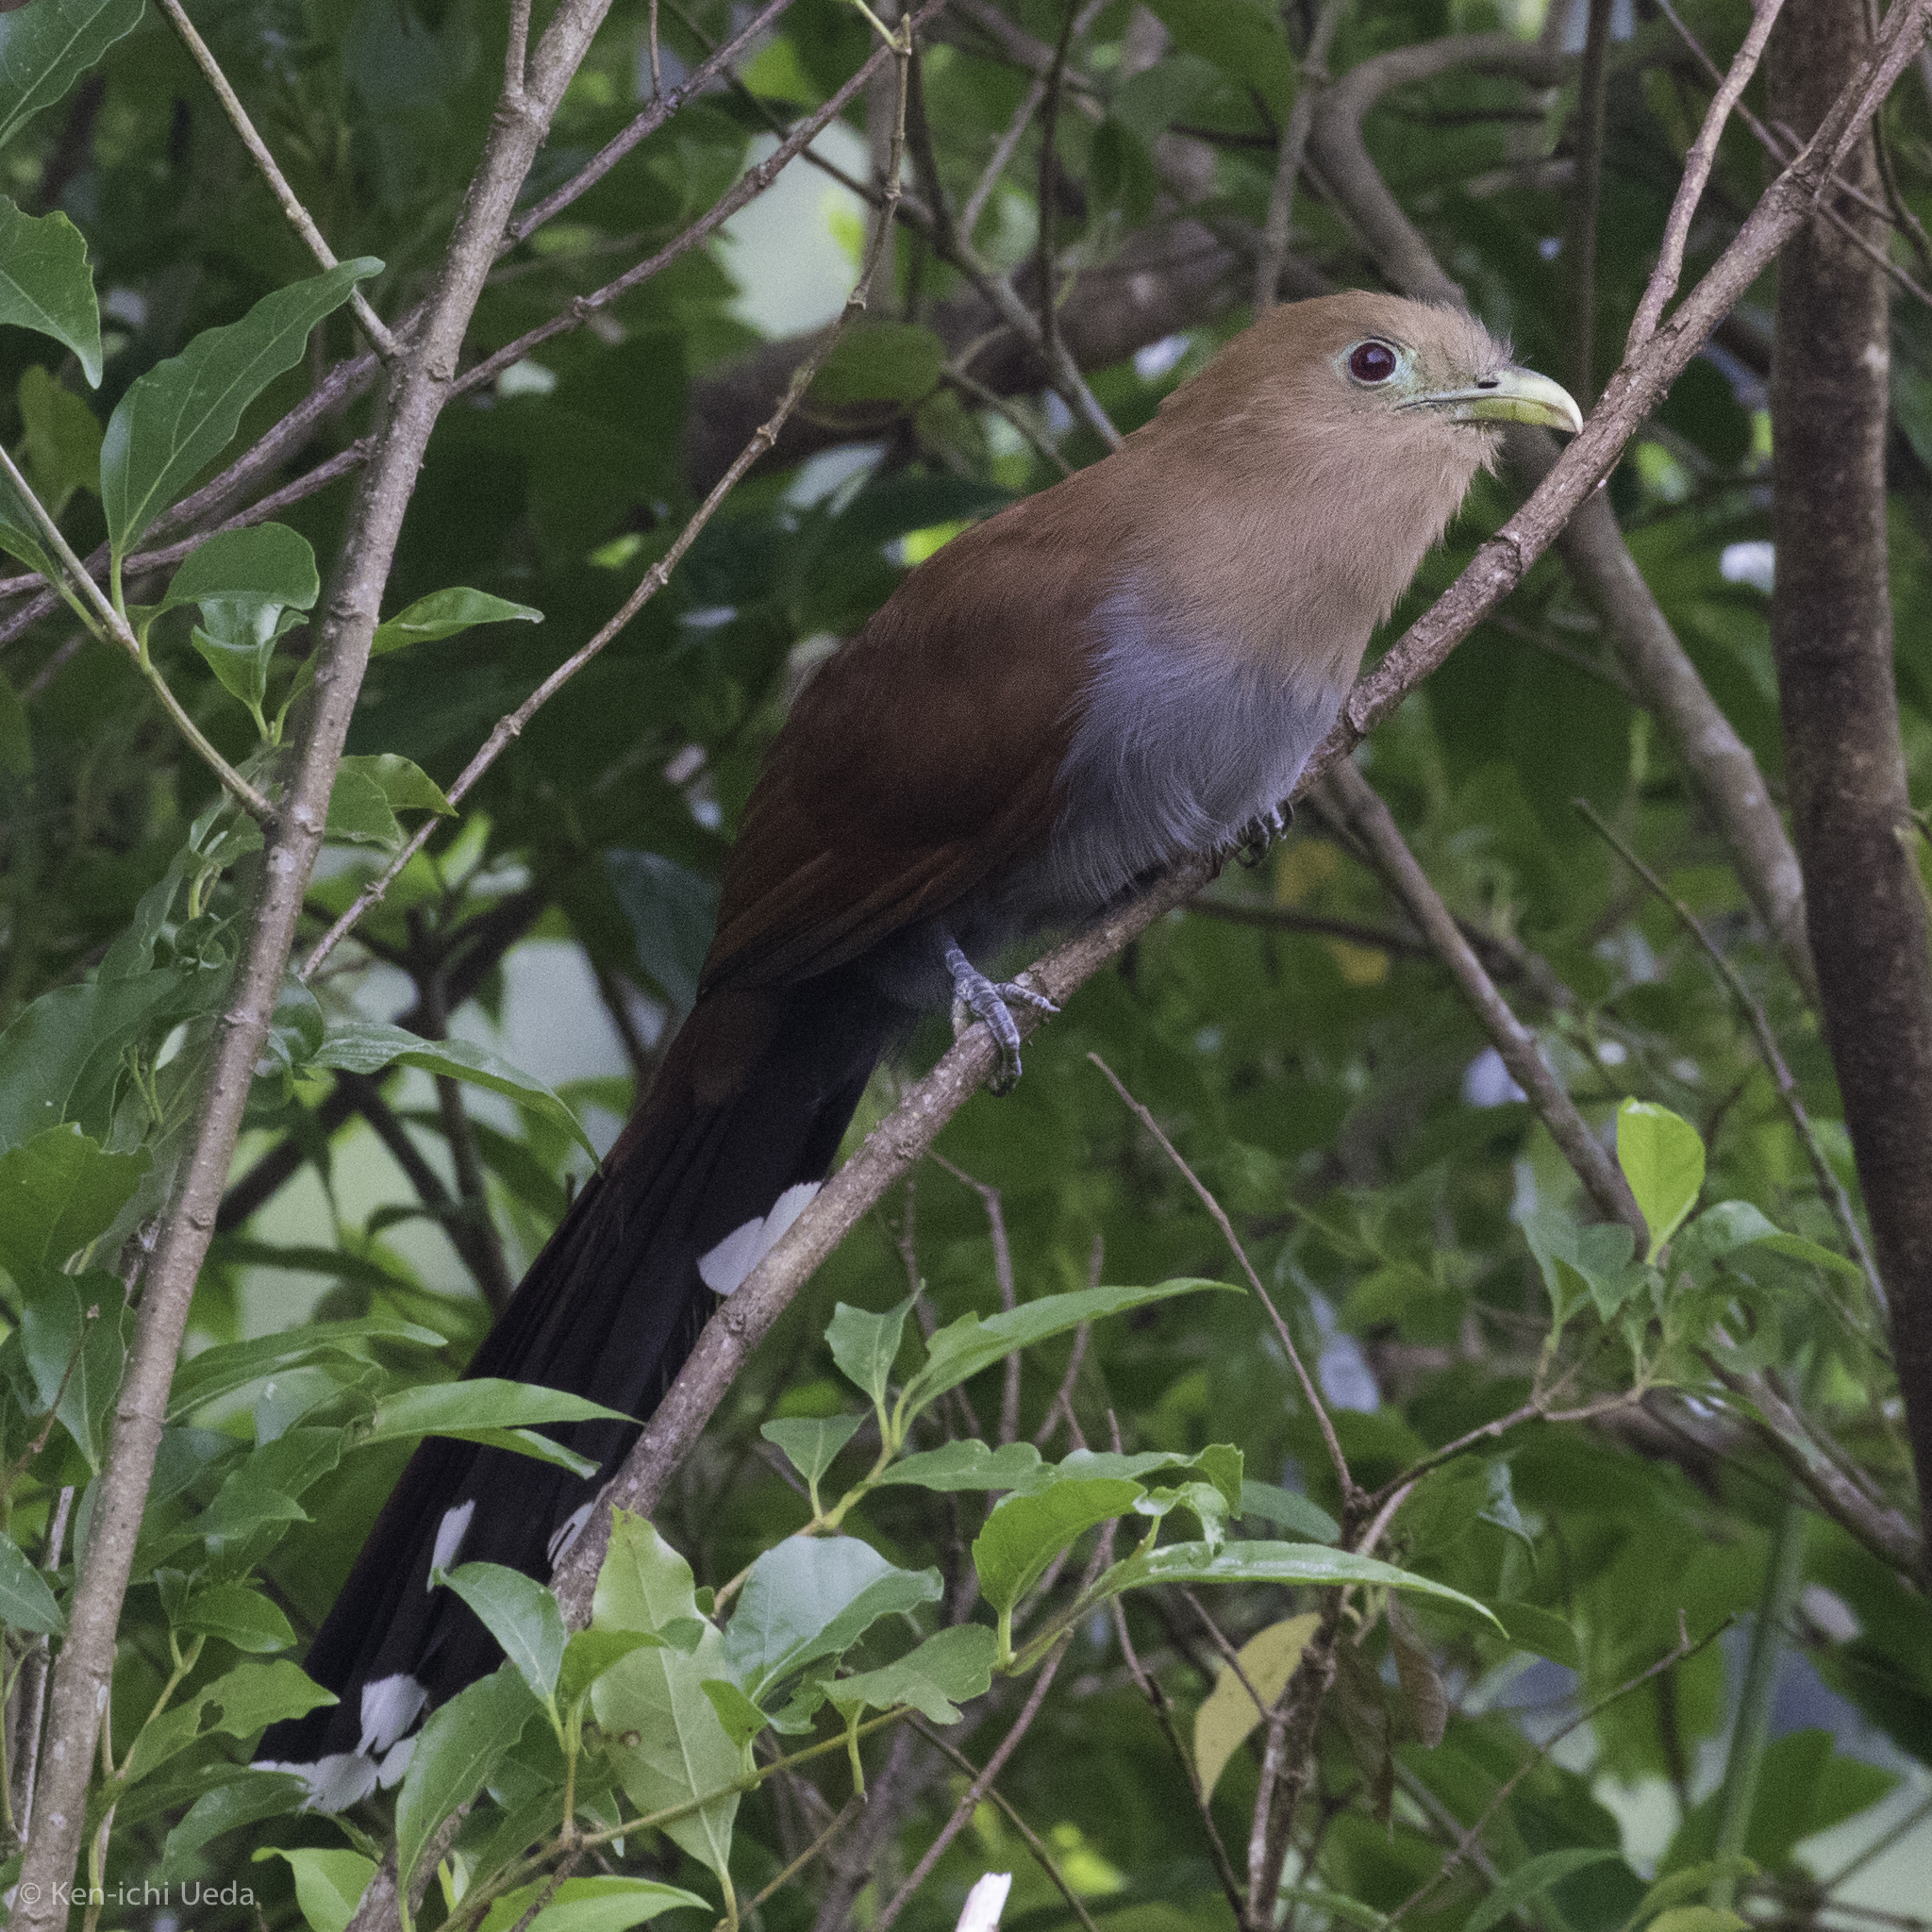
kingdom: Animalia
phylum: Chordata
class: Aves
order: Cuculiformes
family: Cuculidae
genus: Piaya
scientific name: Piaya cayana
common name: Squirrel cuckoo
